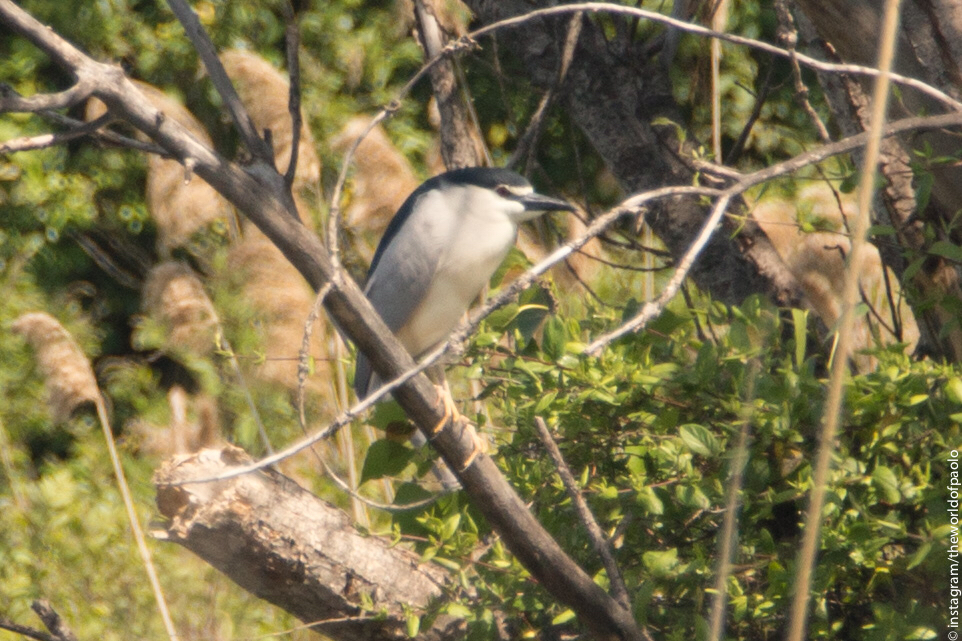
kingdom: Animalia
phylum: Chordata
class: Aves
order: Pelecaniformes
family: Ardeidae
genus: Nycticorax
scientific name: Nycticorax nycticorax
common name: Black-crowned night heron
